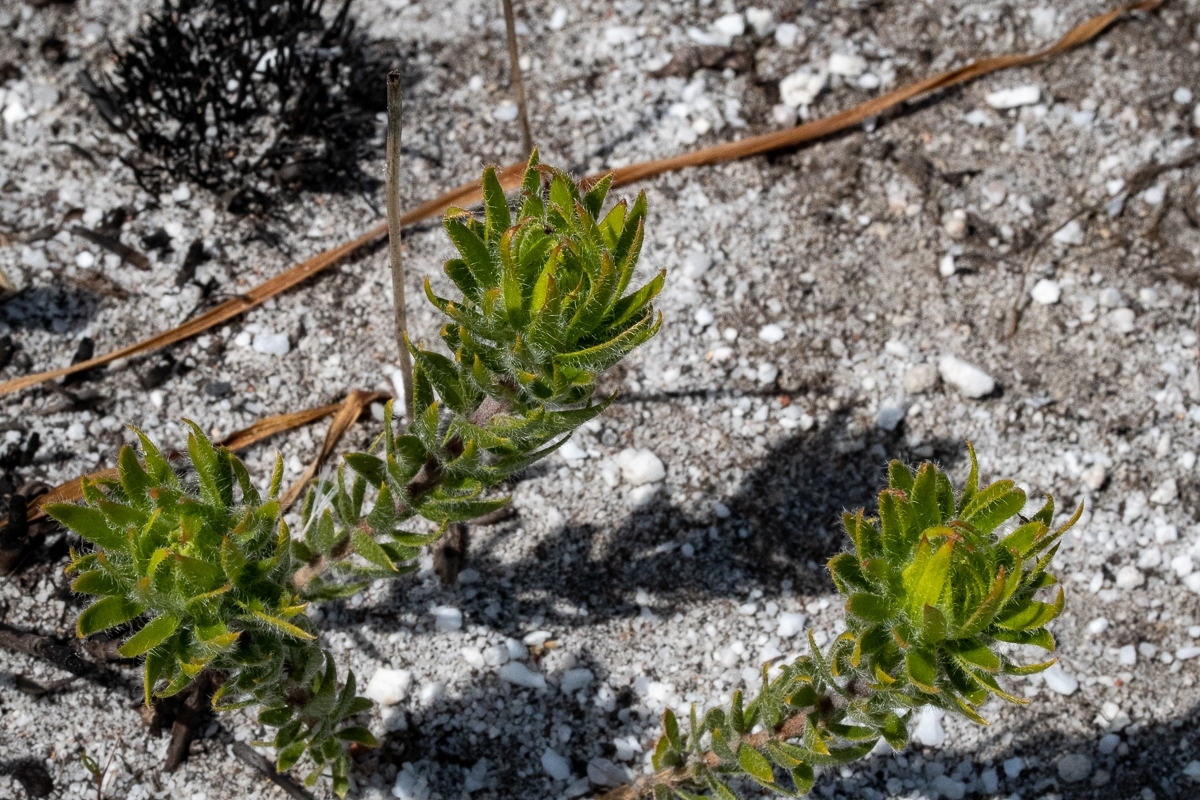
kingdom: Plantae
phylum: Tracheophyta
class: Magnoliopsida
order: Fabales
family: Fabaceae
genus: Aspalathus
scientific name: Aspalathus aspalathoides
